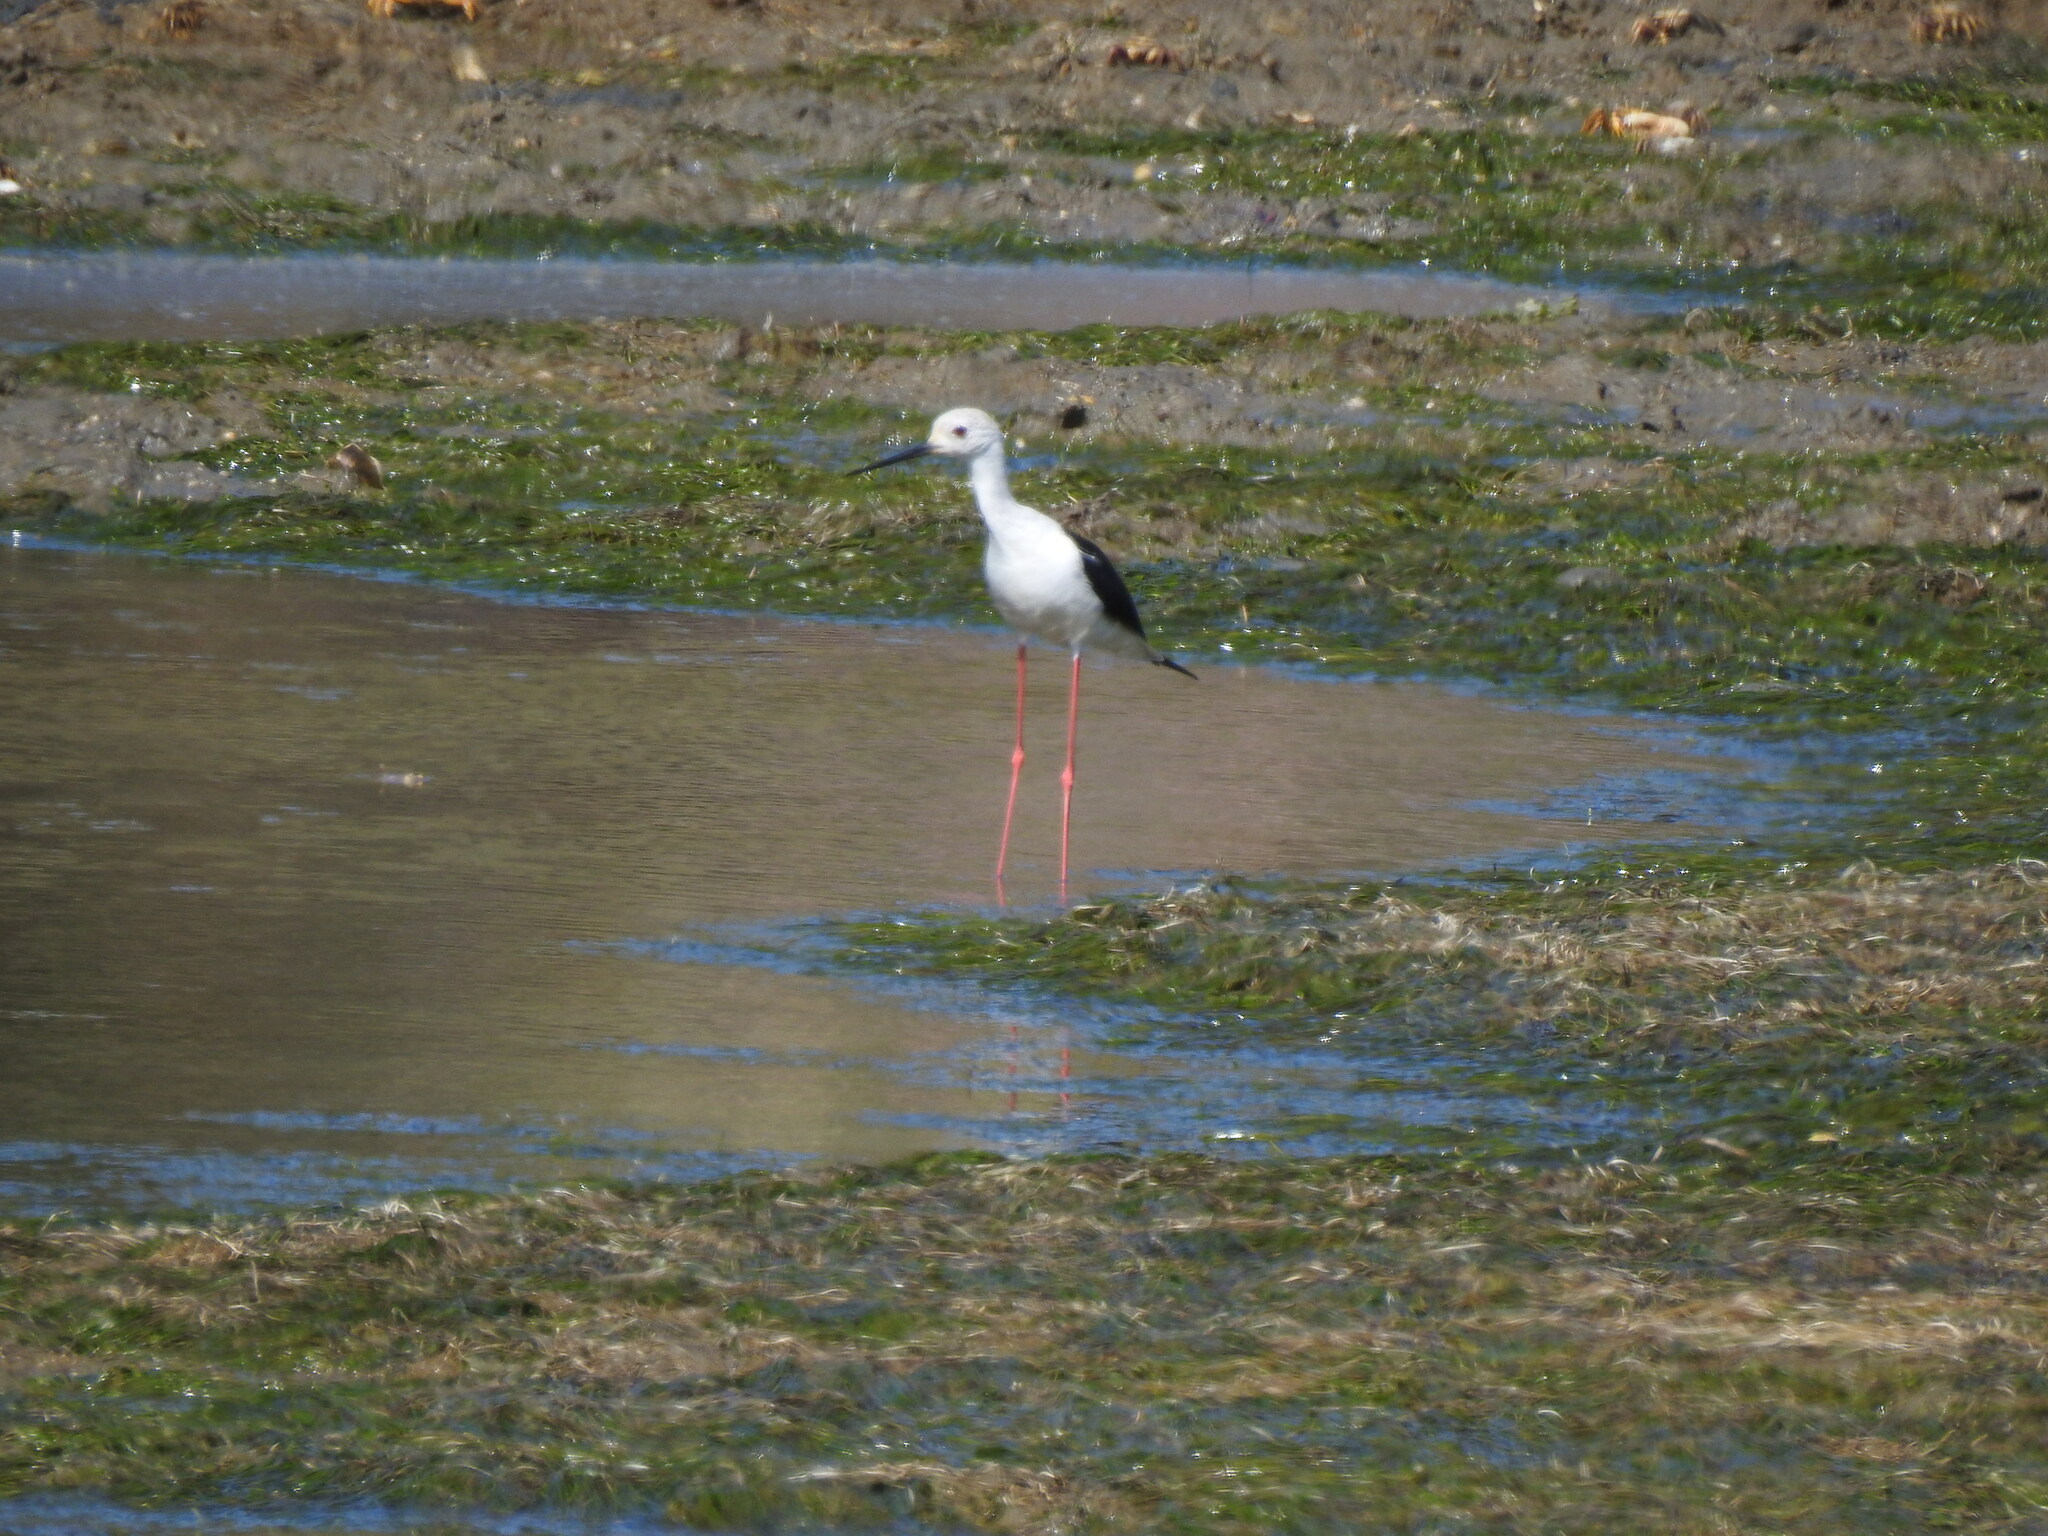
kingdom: Animalia
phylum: Chordata
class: Aves
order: Charadriiformes
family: Recurvirostridae
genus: Himantopus
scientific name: Himantopus himantopus
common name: Black-winged stilt
